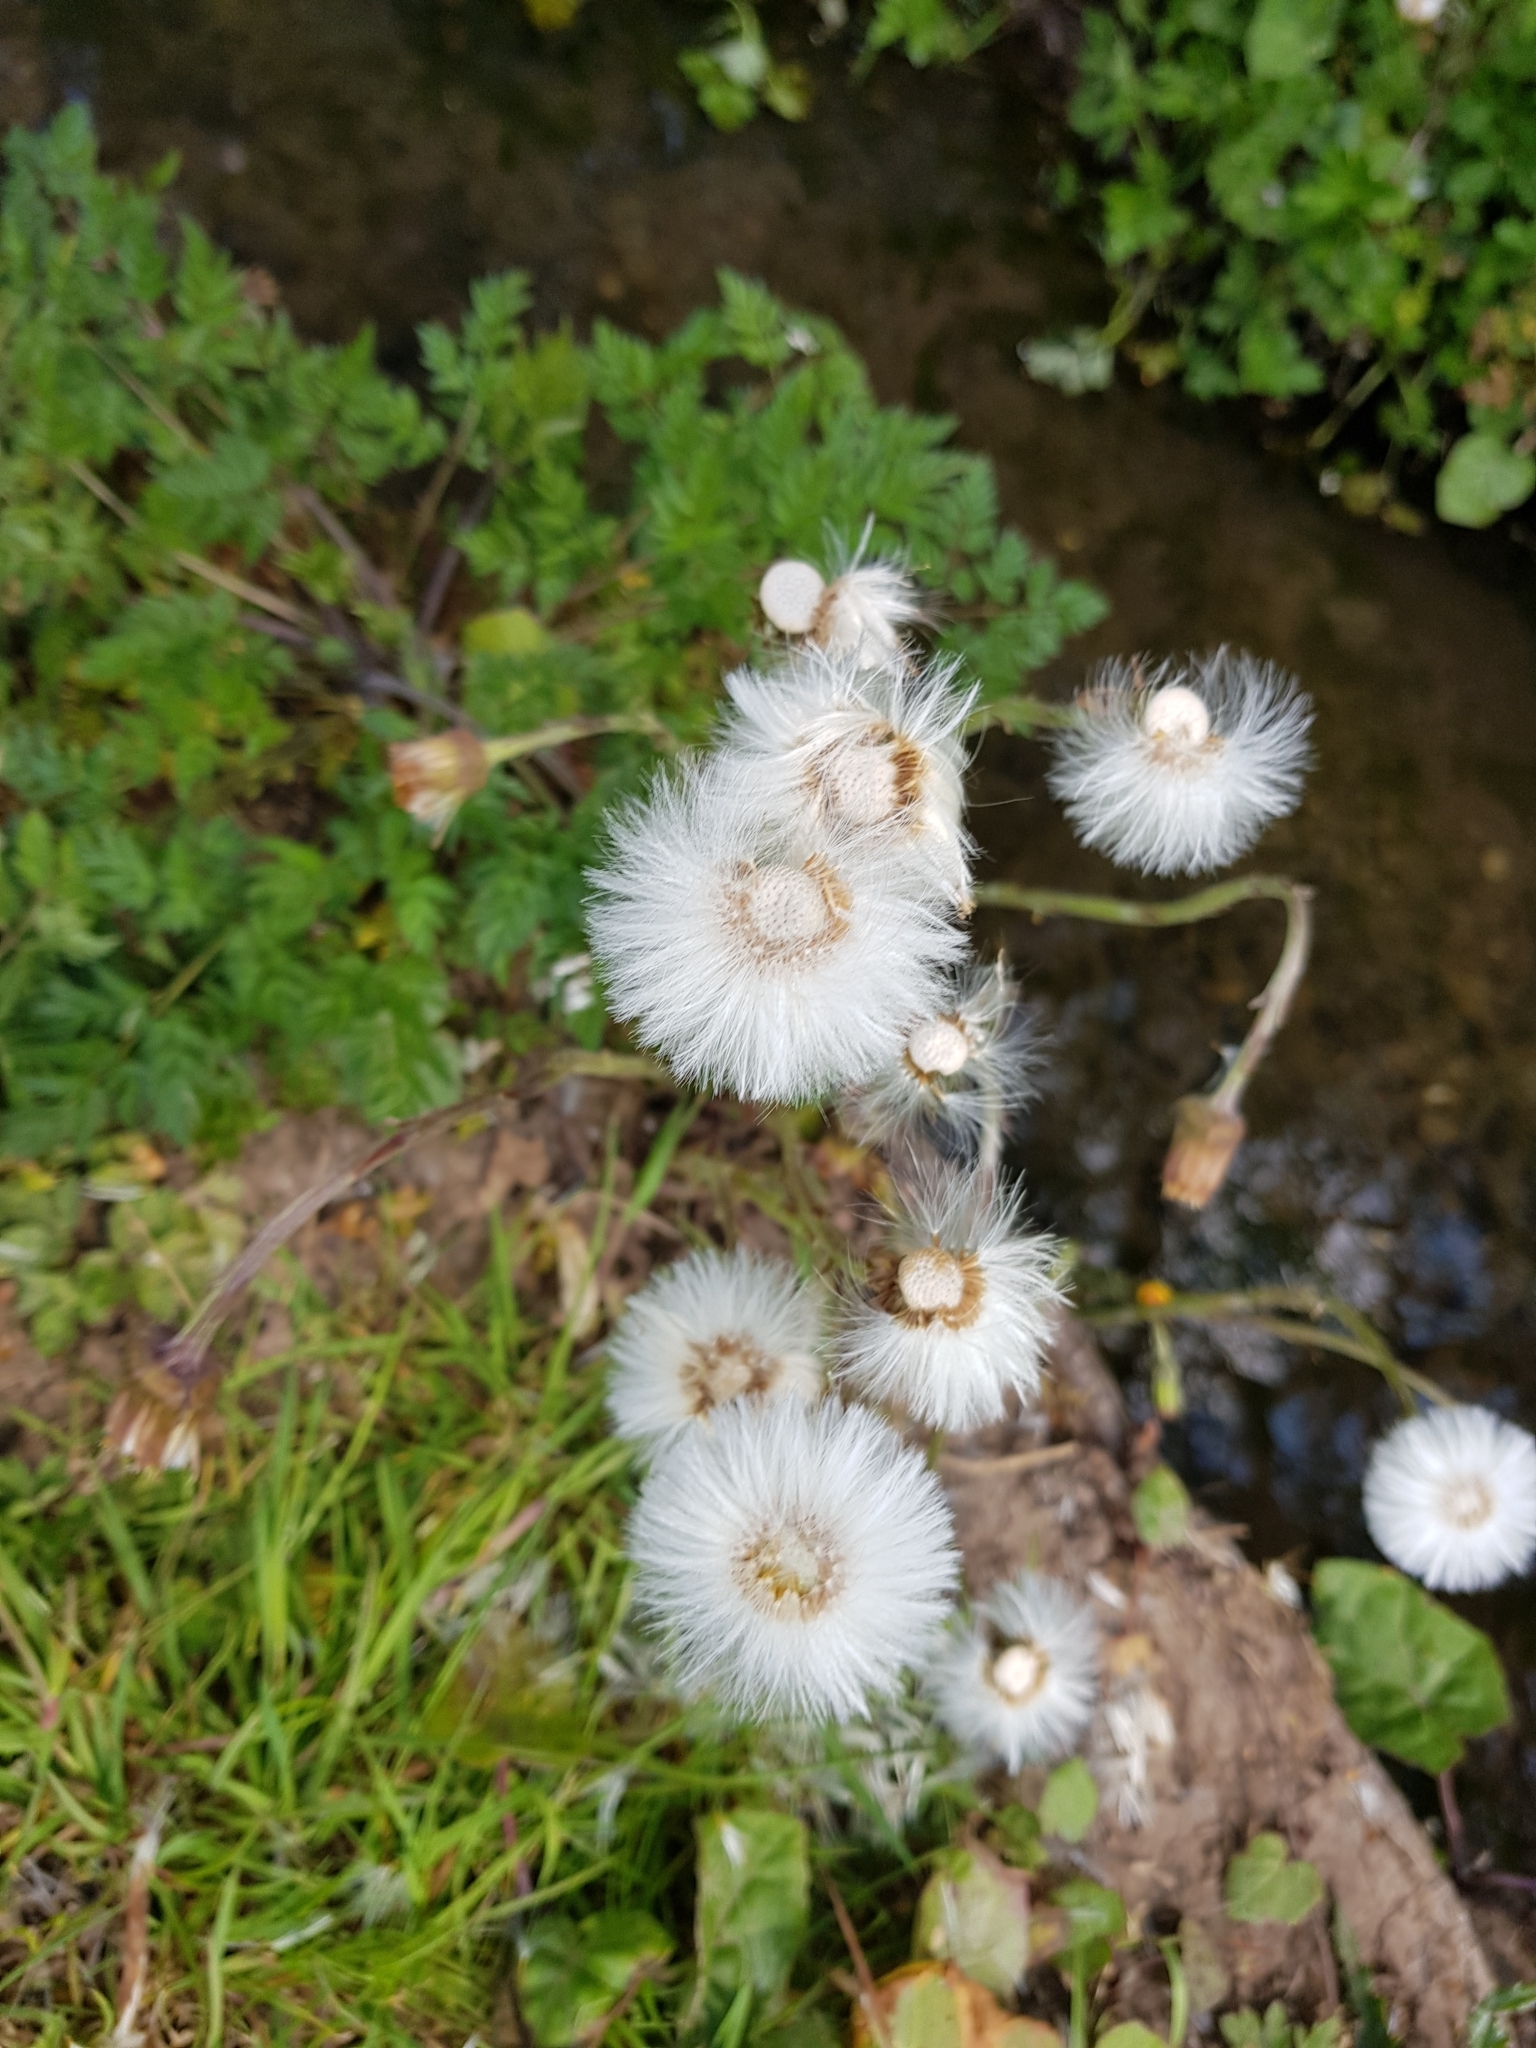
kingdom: Plantae
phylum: Tracheophyta
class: Magnoliopsida
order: Asterales
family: Asteraceae
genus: Tussilago
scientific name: Tussilago farfara
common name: Coltsfoot
